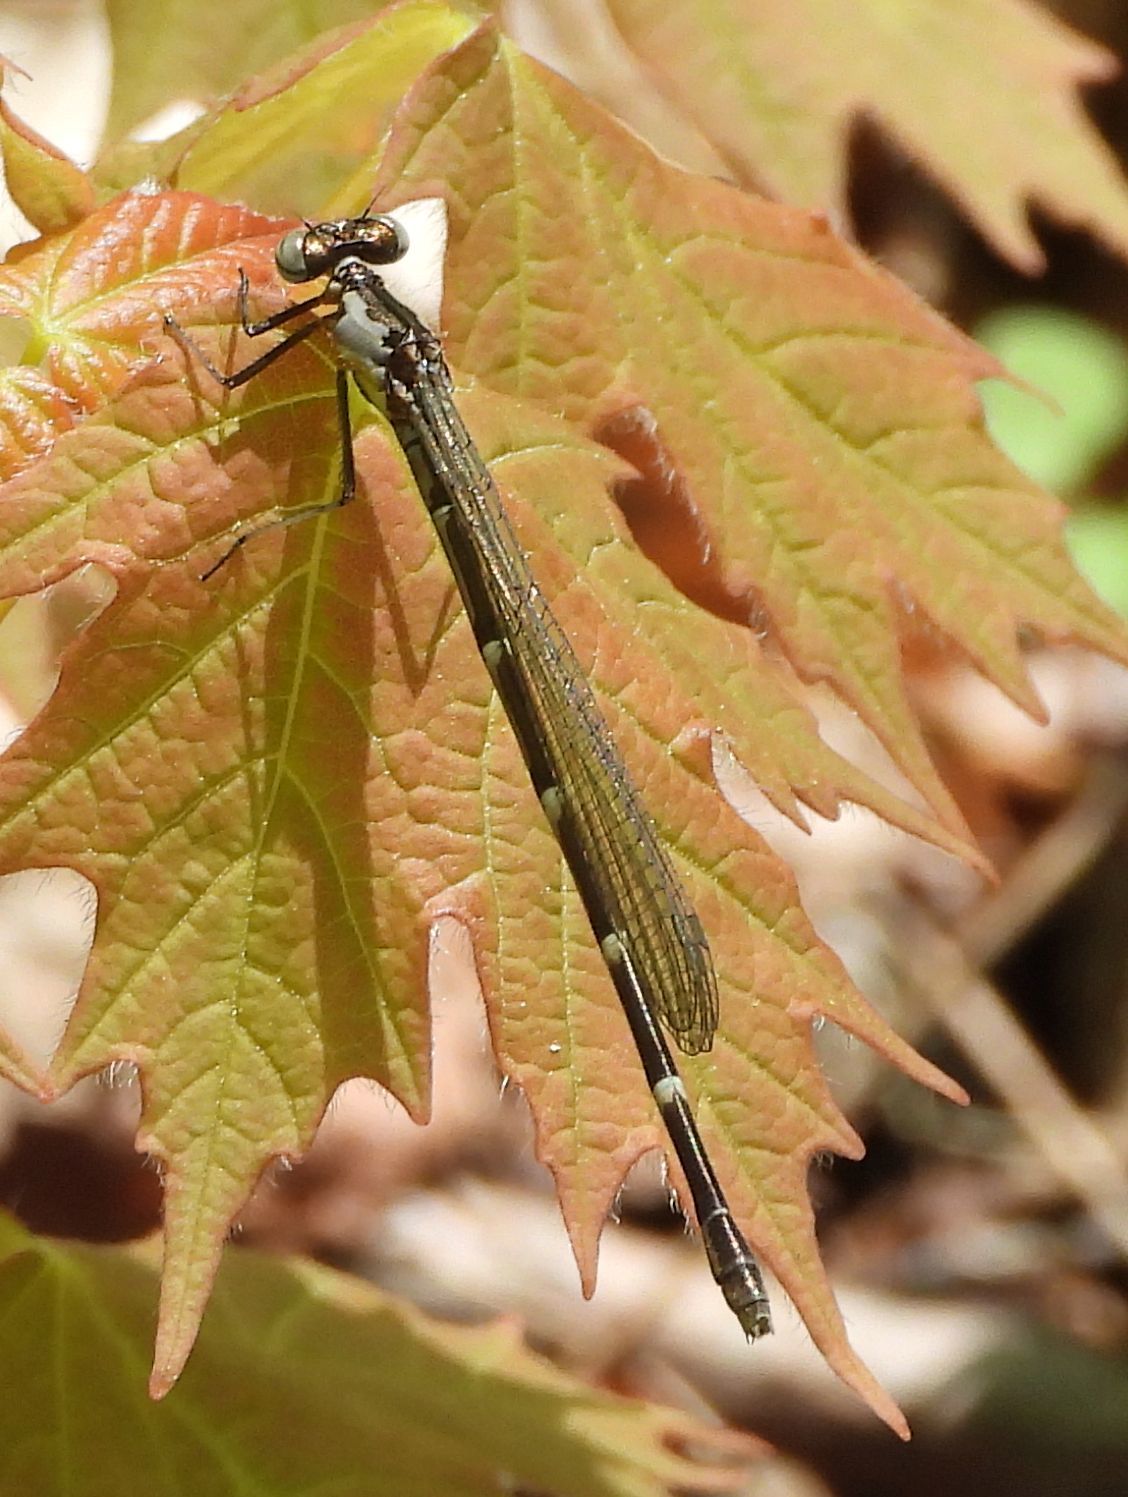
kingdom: Animalia
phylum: Arthropoda
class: Insecta
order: Odonata
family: Coenagrionidae
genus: Chromagrion
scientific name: Chromagrion conditum
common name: Aurora damsel
